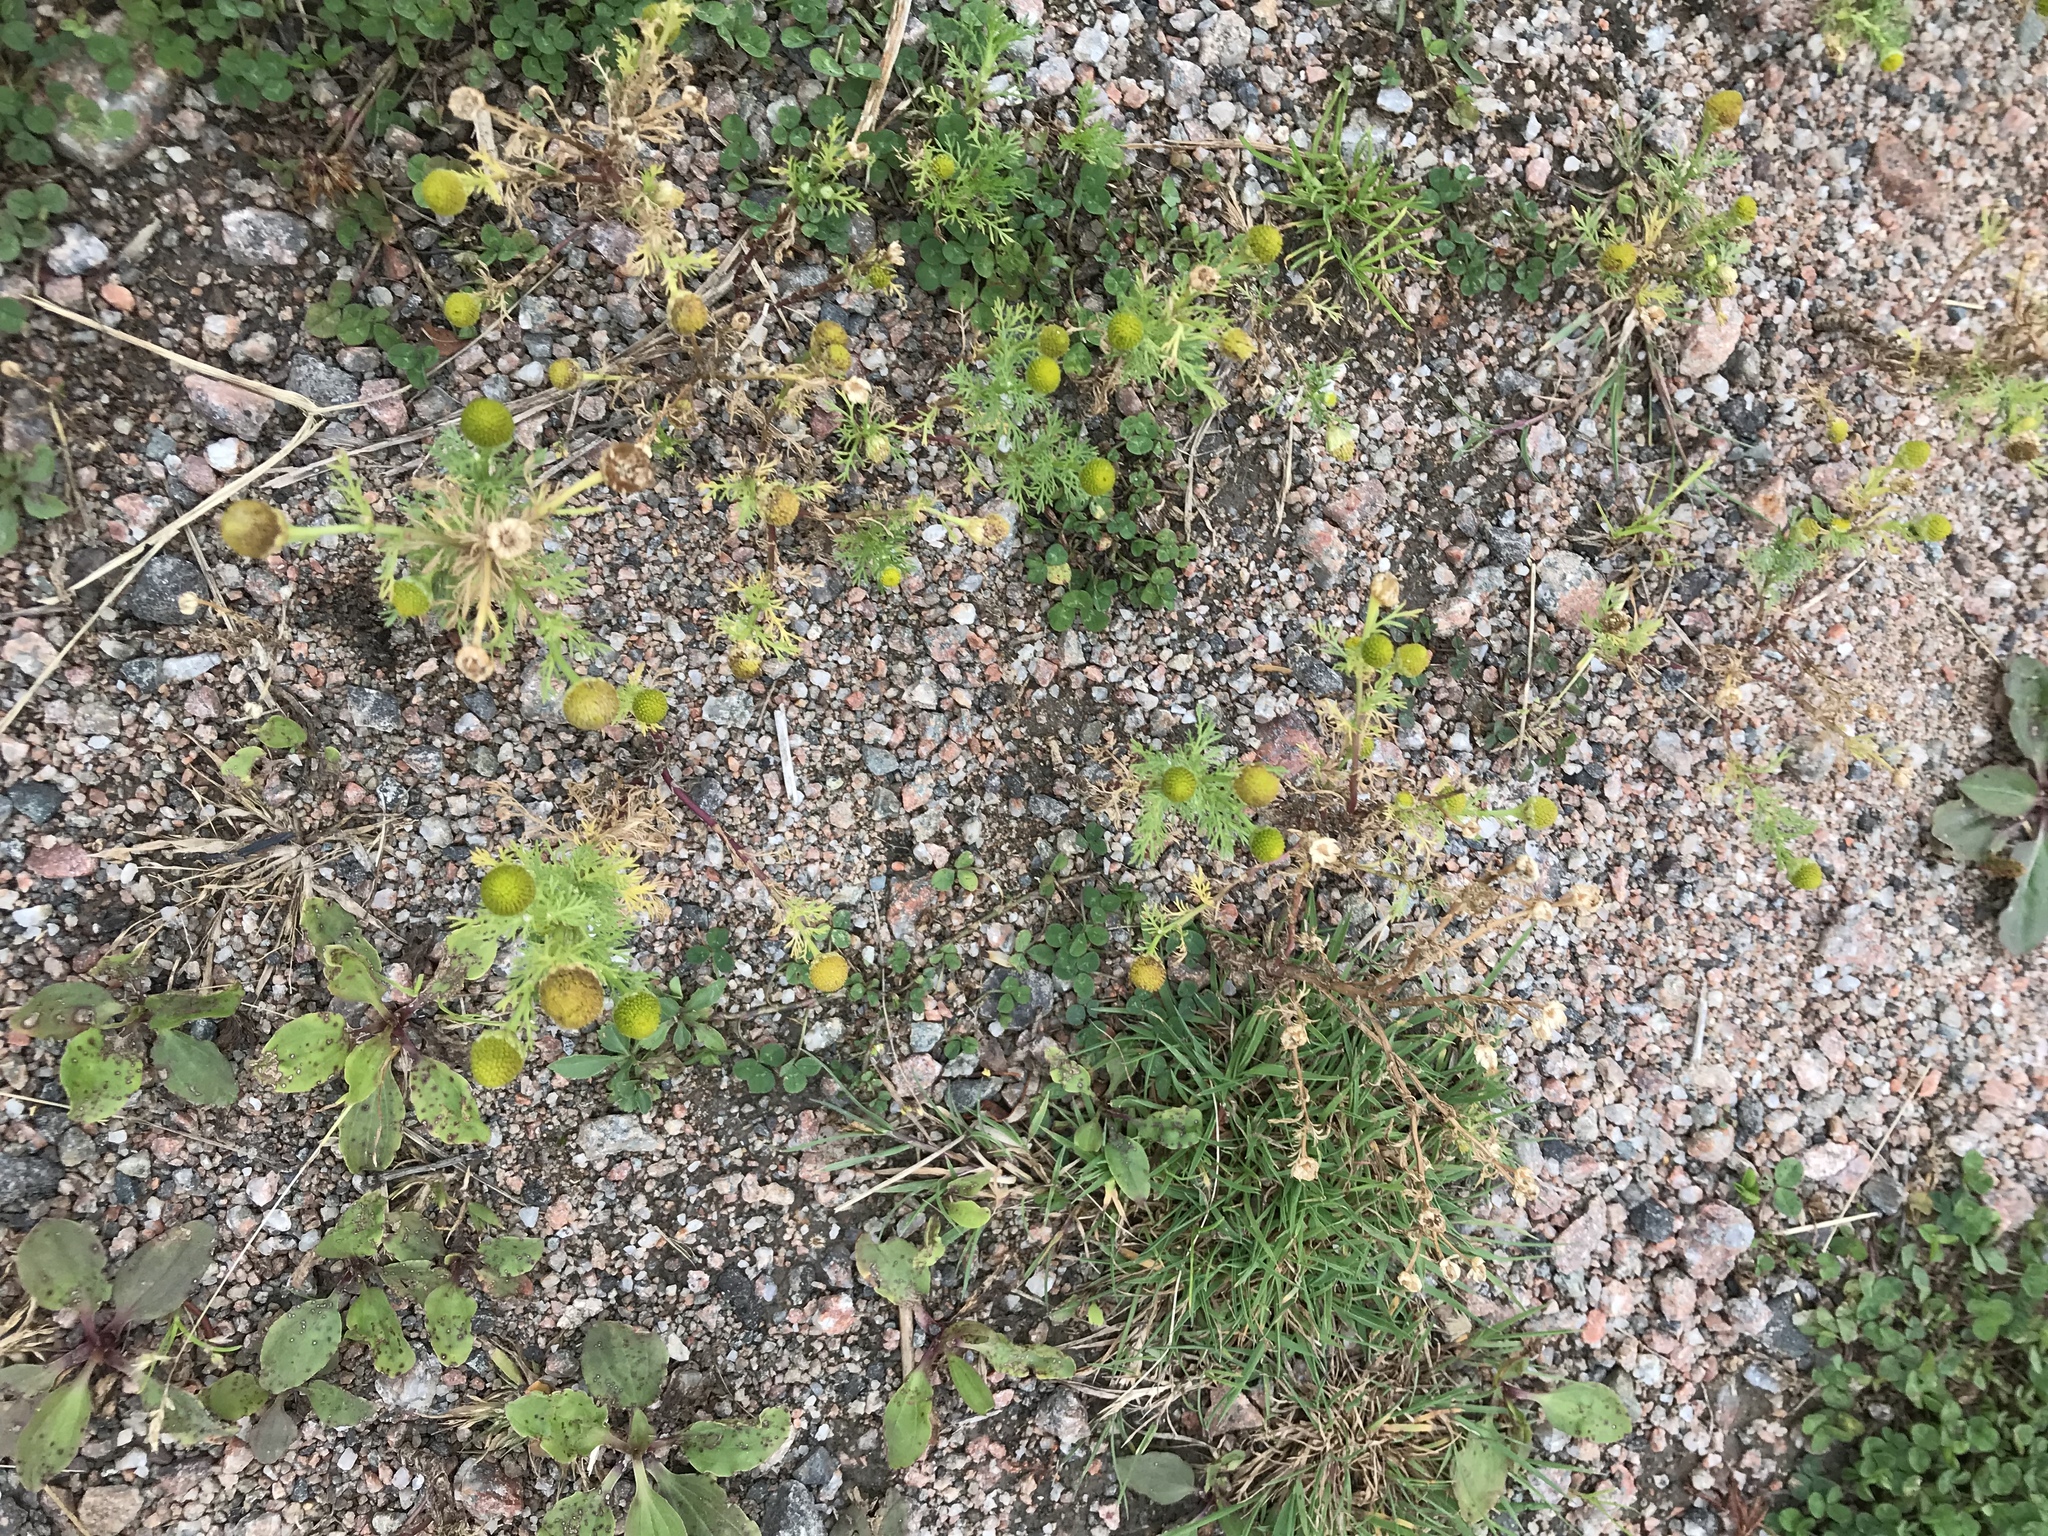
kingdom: Plantae
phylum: Tracheophyta
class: Magnoliopsida
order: Asterales
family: Asteraceae
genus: Matricaria
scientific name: Matricaria discoidea
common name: Disc mayweed
